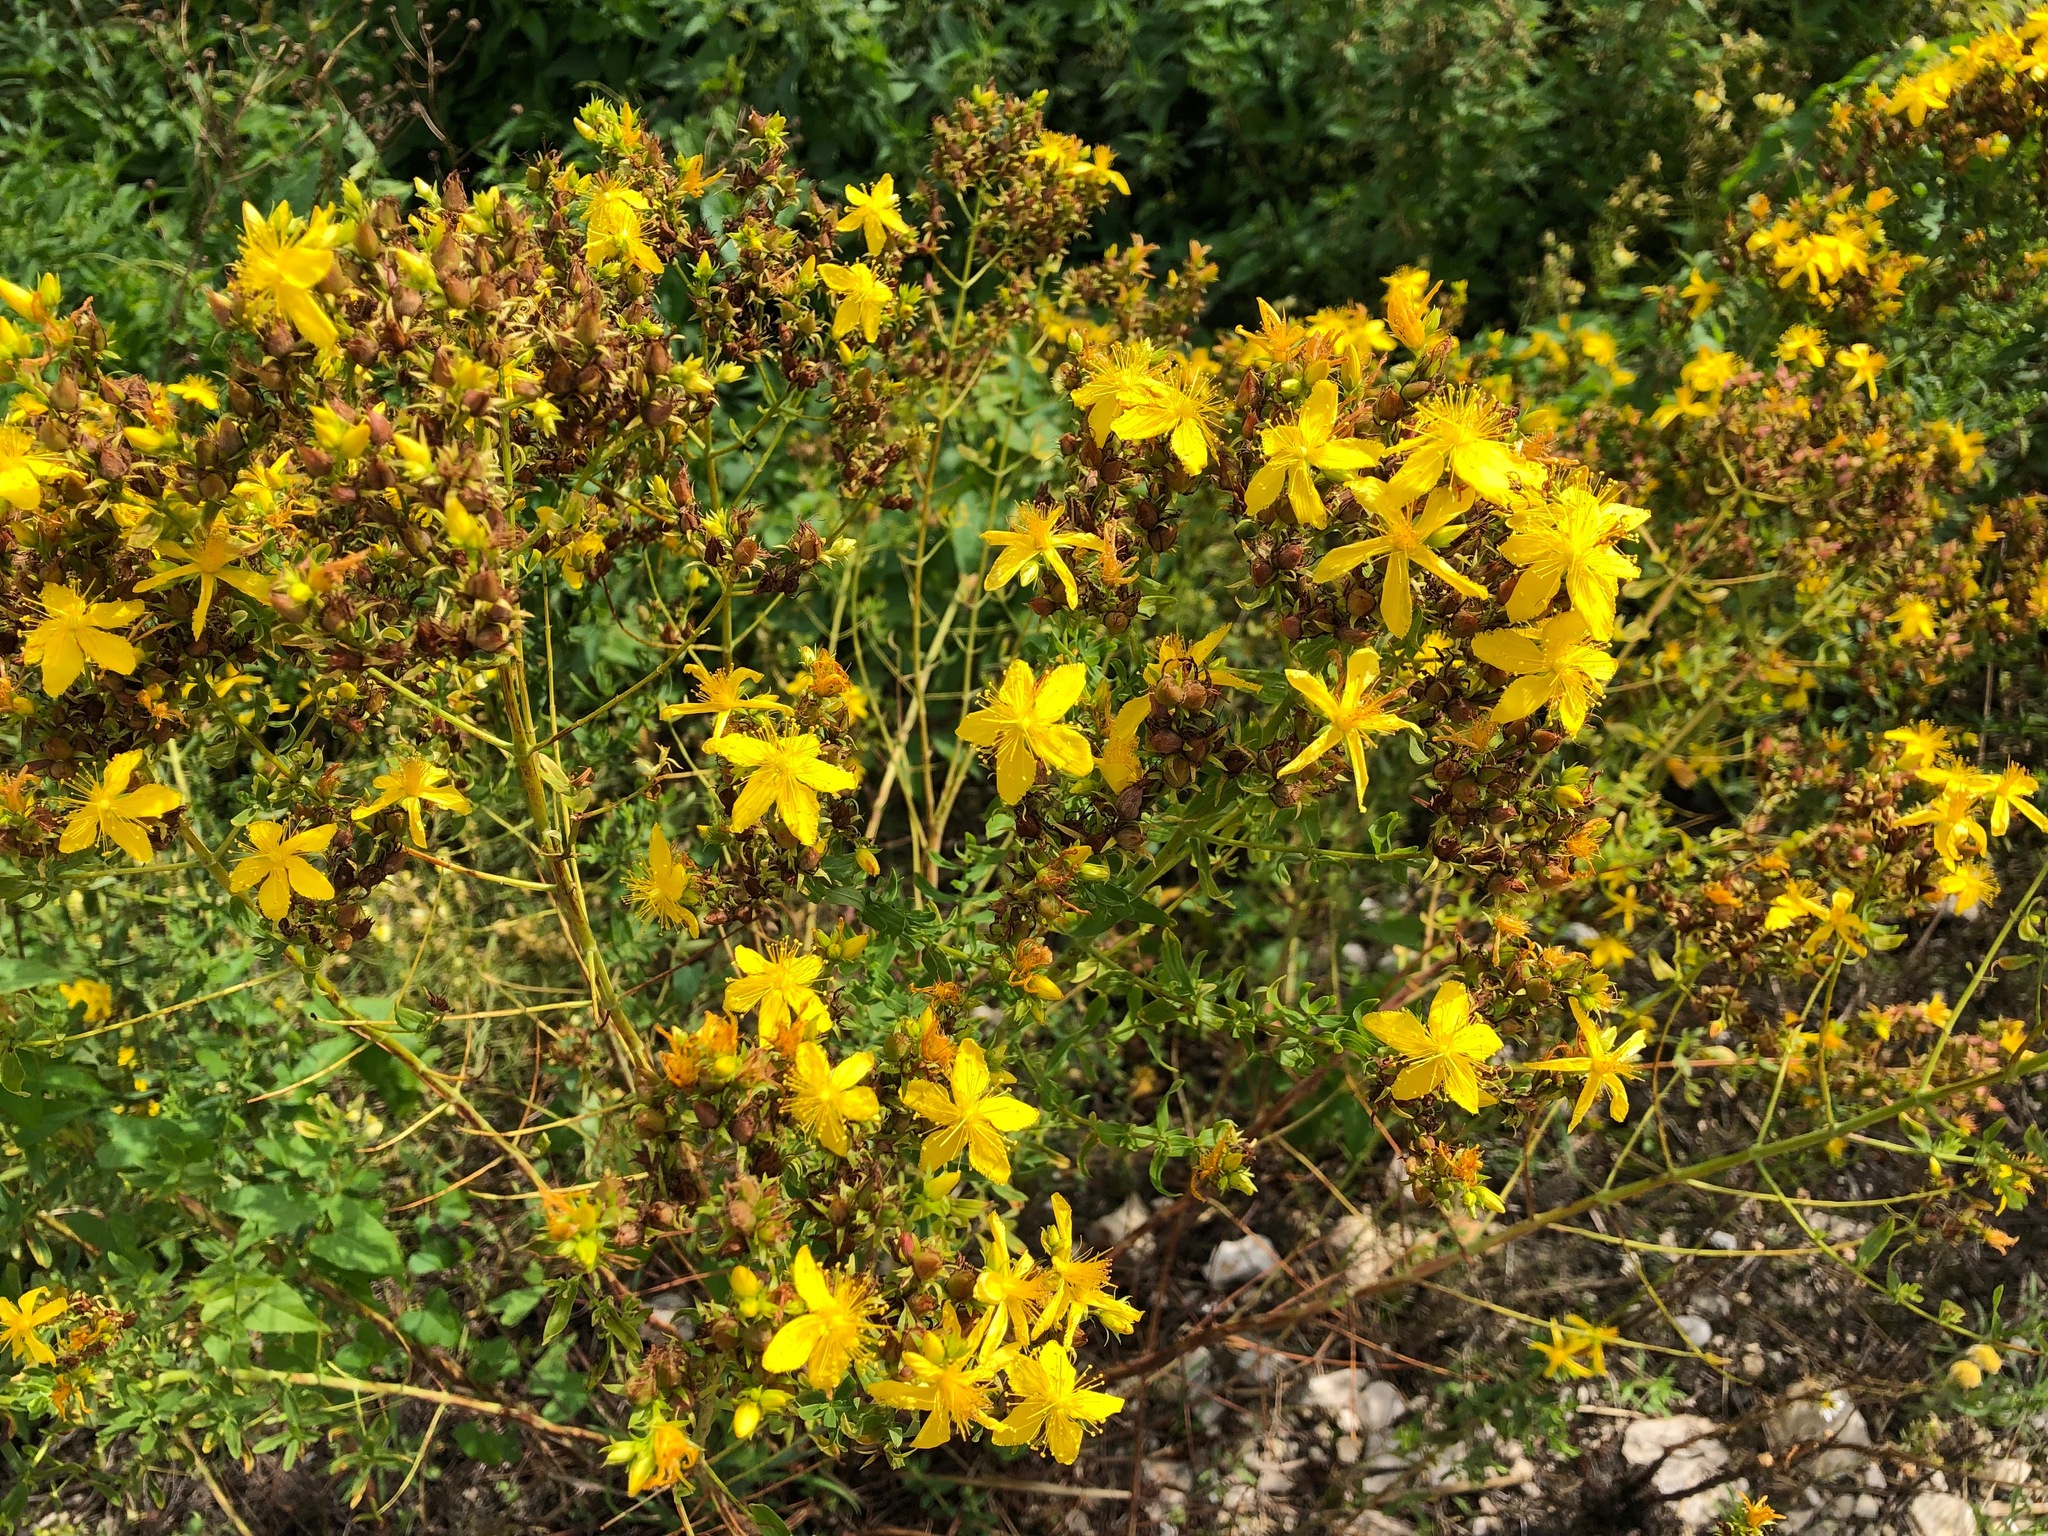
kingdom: Plantae
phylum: Tracheophyta
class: Magnoliopsida
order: Malpighiales
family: Hypericaceae
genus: Hypericum
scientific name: Hypericum perforatum
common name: Common st. johnswort
